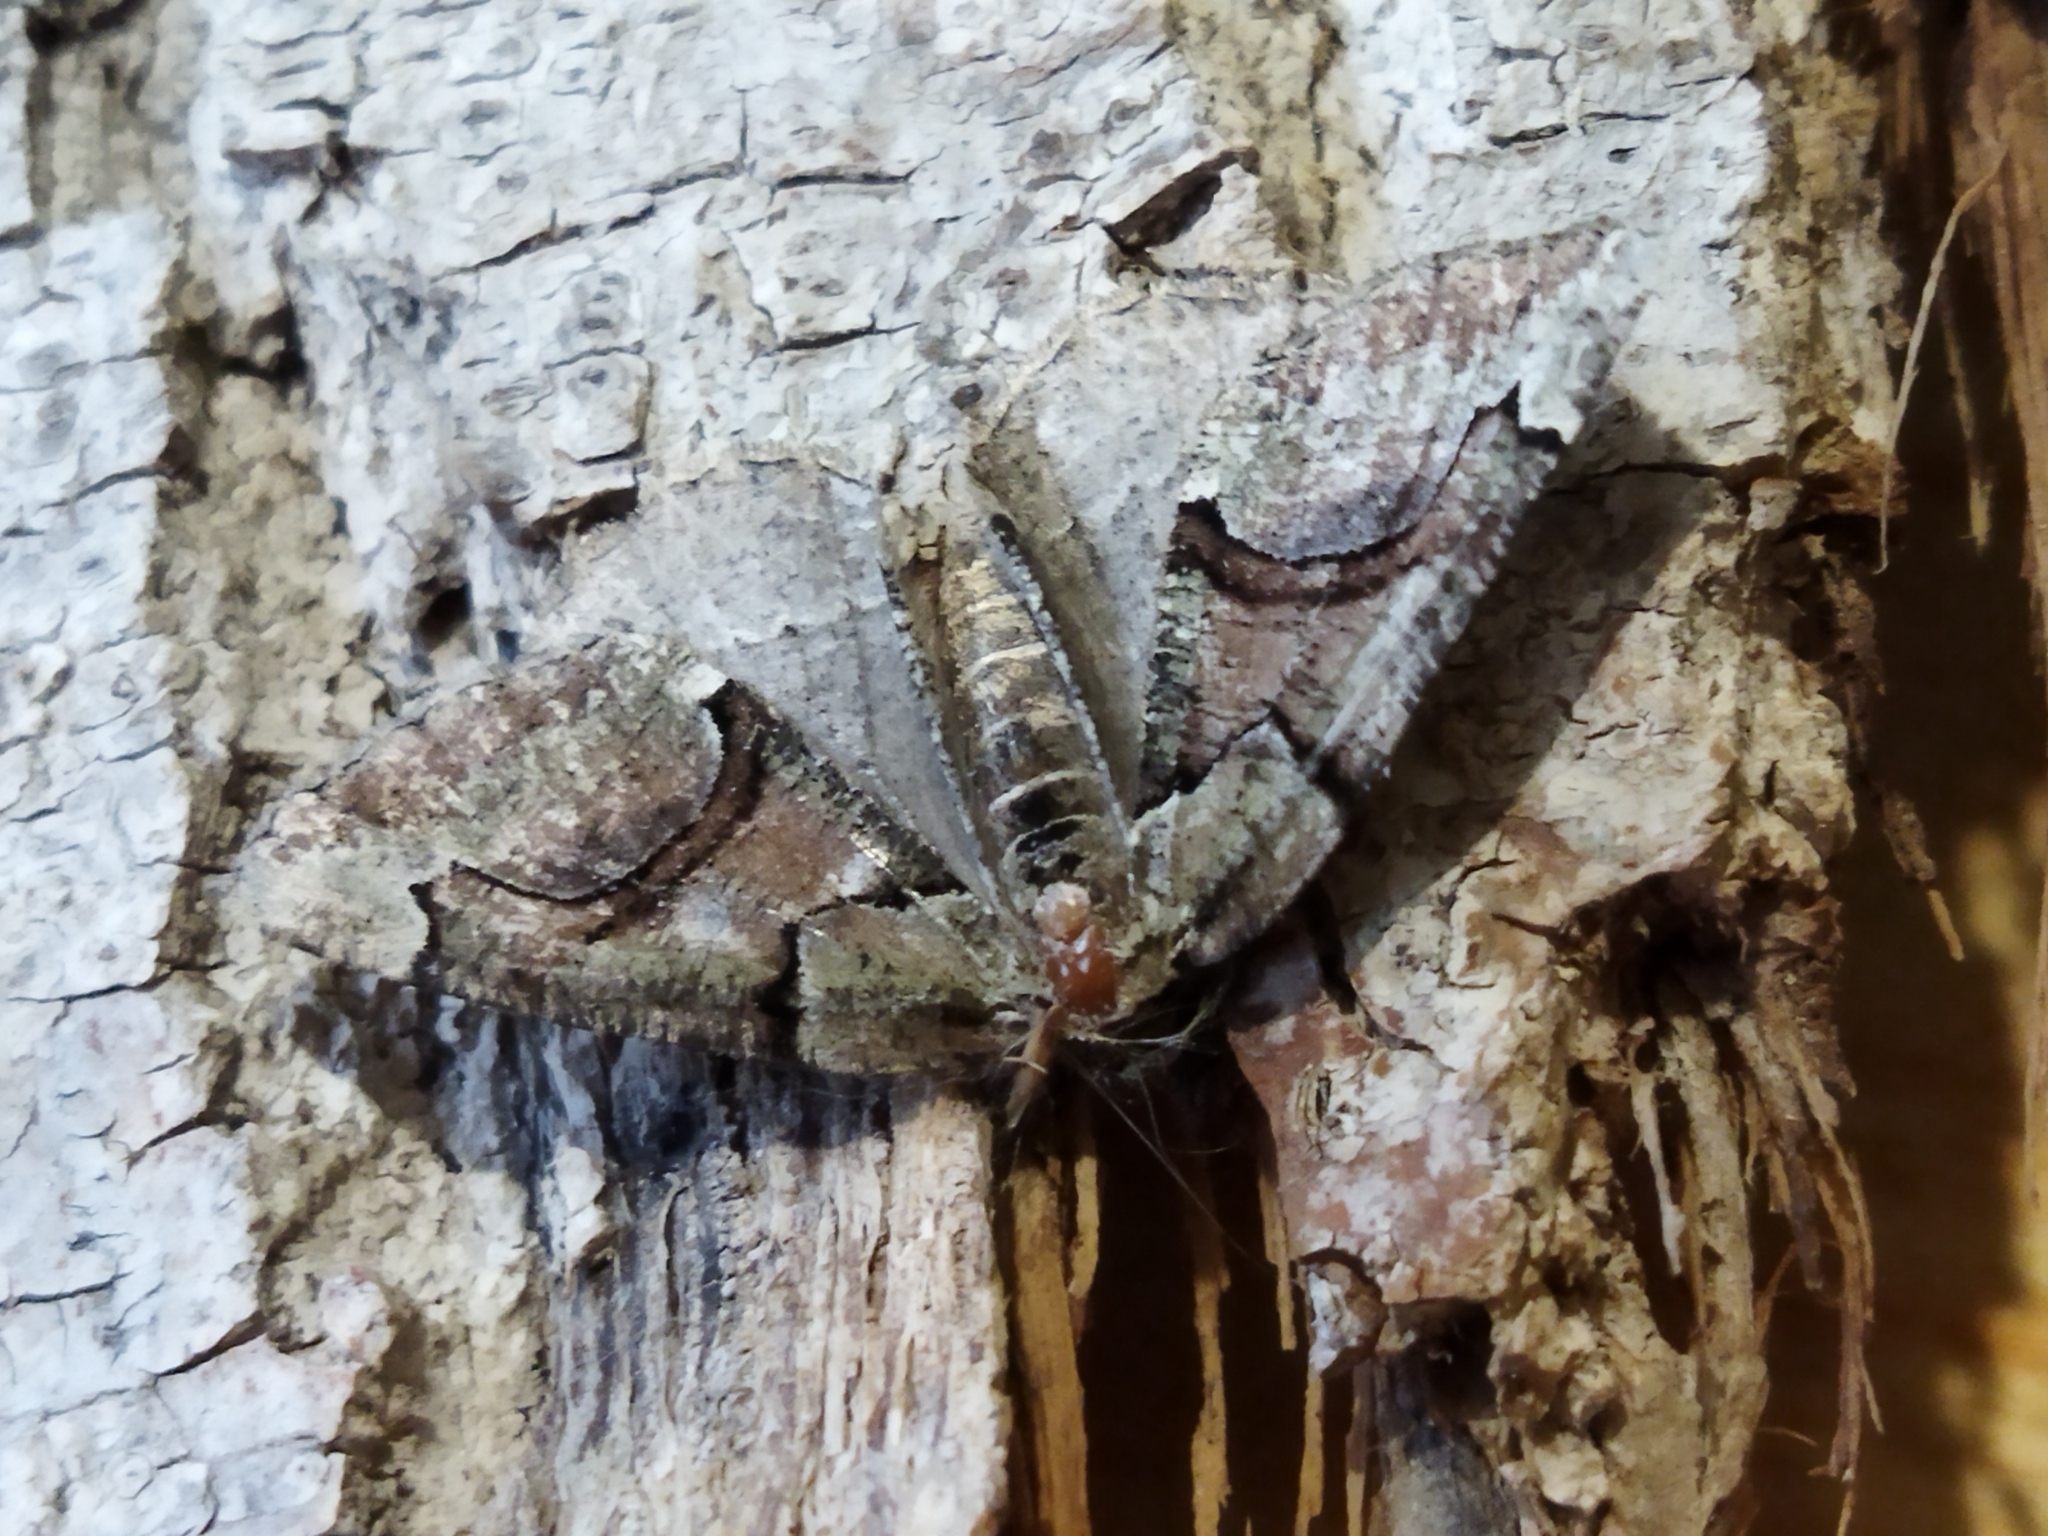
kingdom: Animalia
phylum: Arthropoda
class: Insecta
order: Lepidoptera
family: Geometridae
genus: Asovia
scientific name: Asovia maeoticaria
